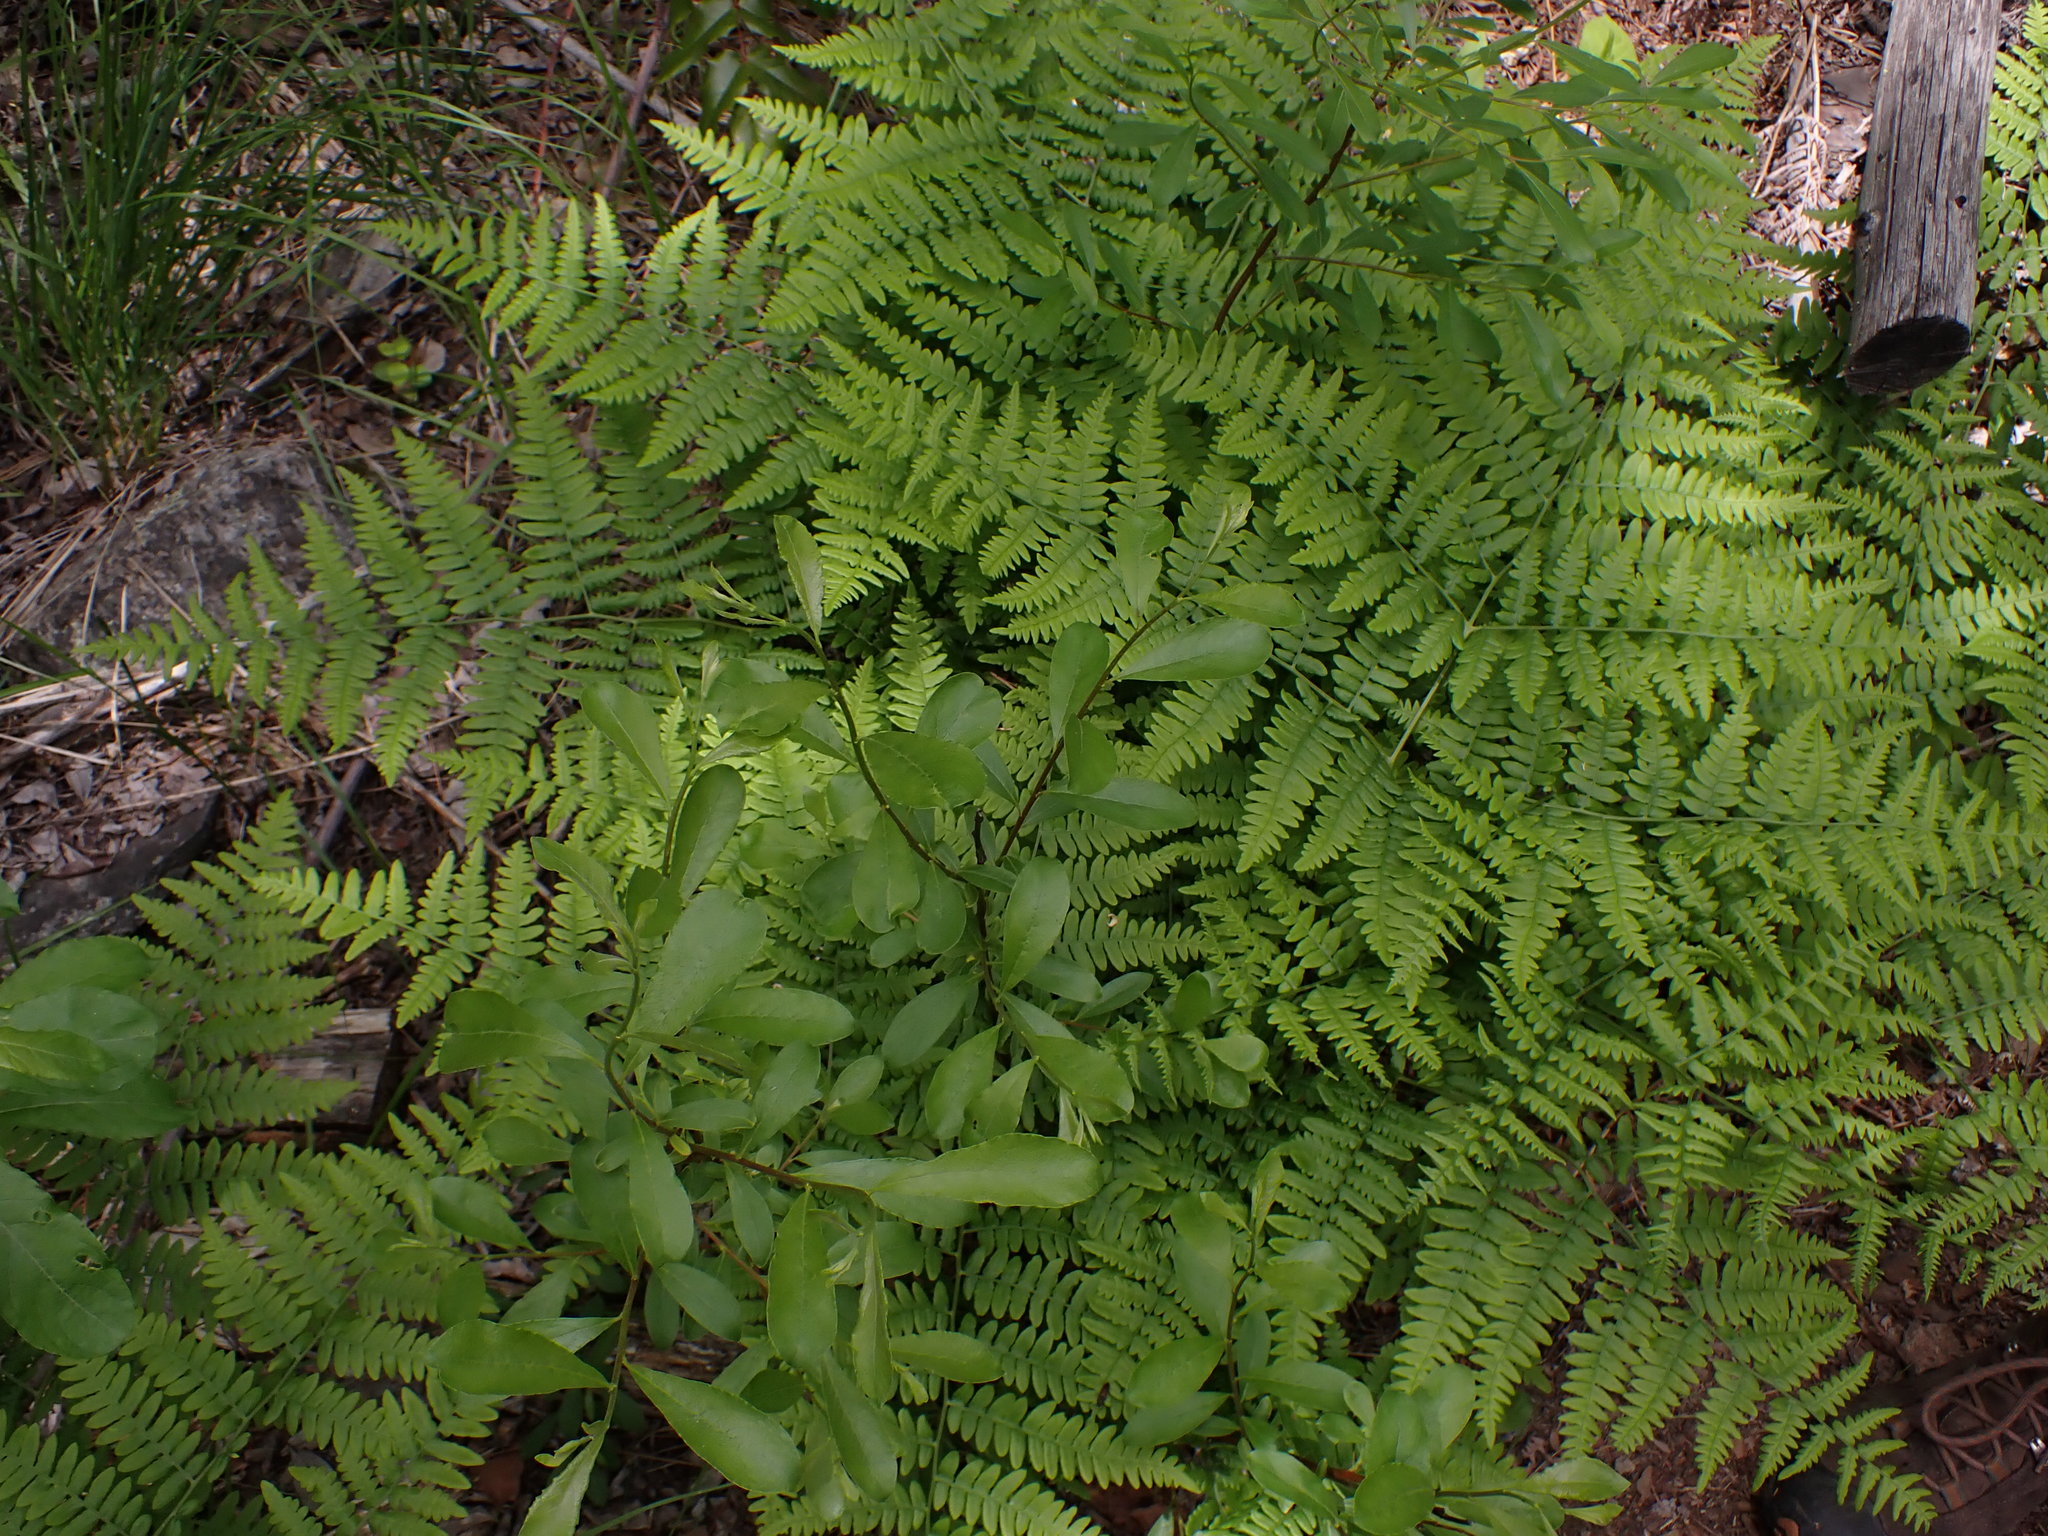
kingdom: Plantae
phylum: Tracheophyta
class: Polypodiopsida
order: Polypodiales
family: Dennstaedtiaceae
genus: Pteridium
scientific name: Pteridium aquilinum
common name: Bracken
